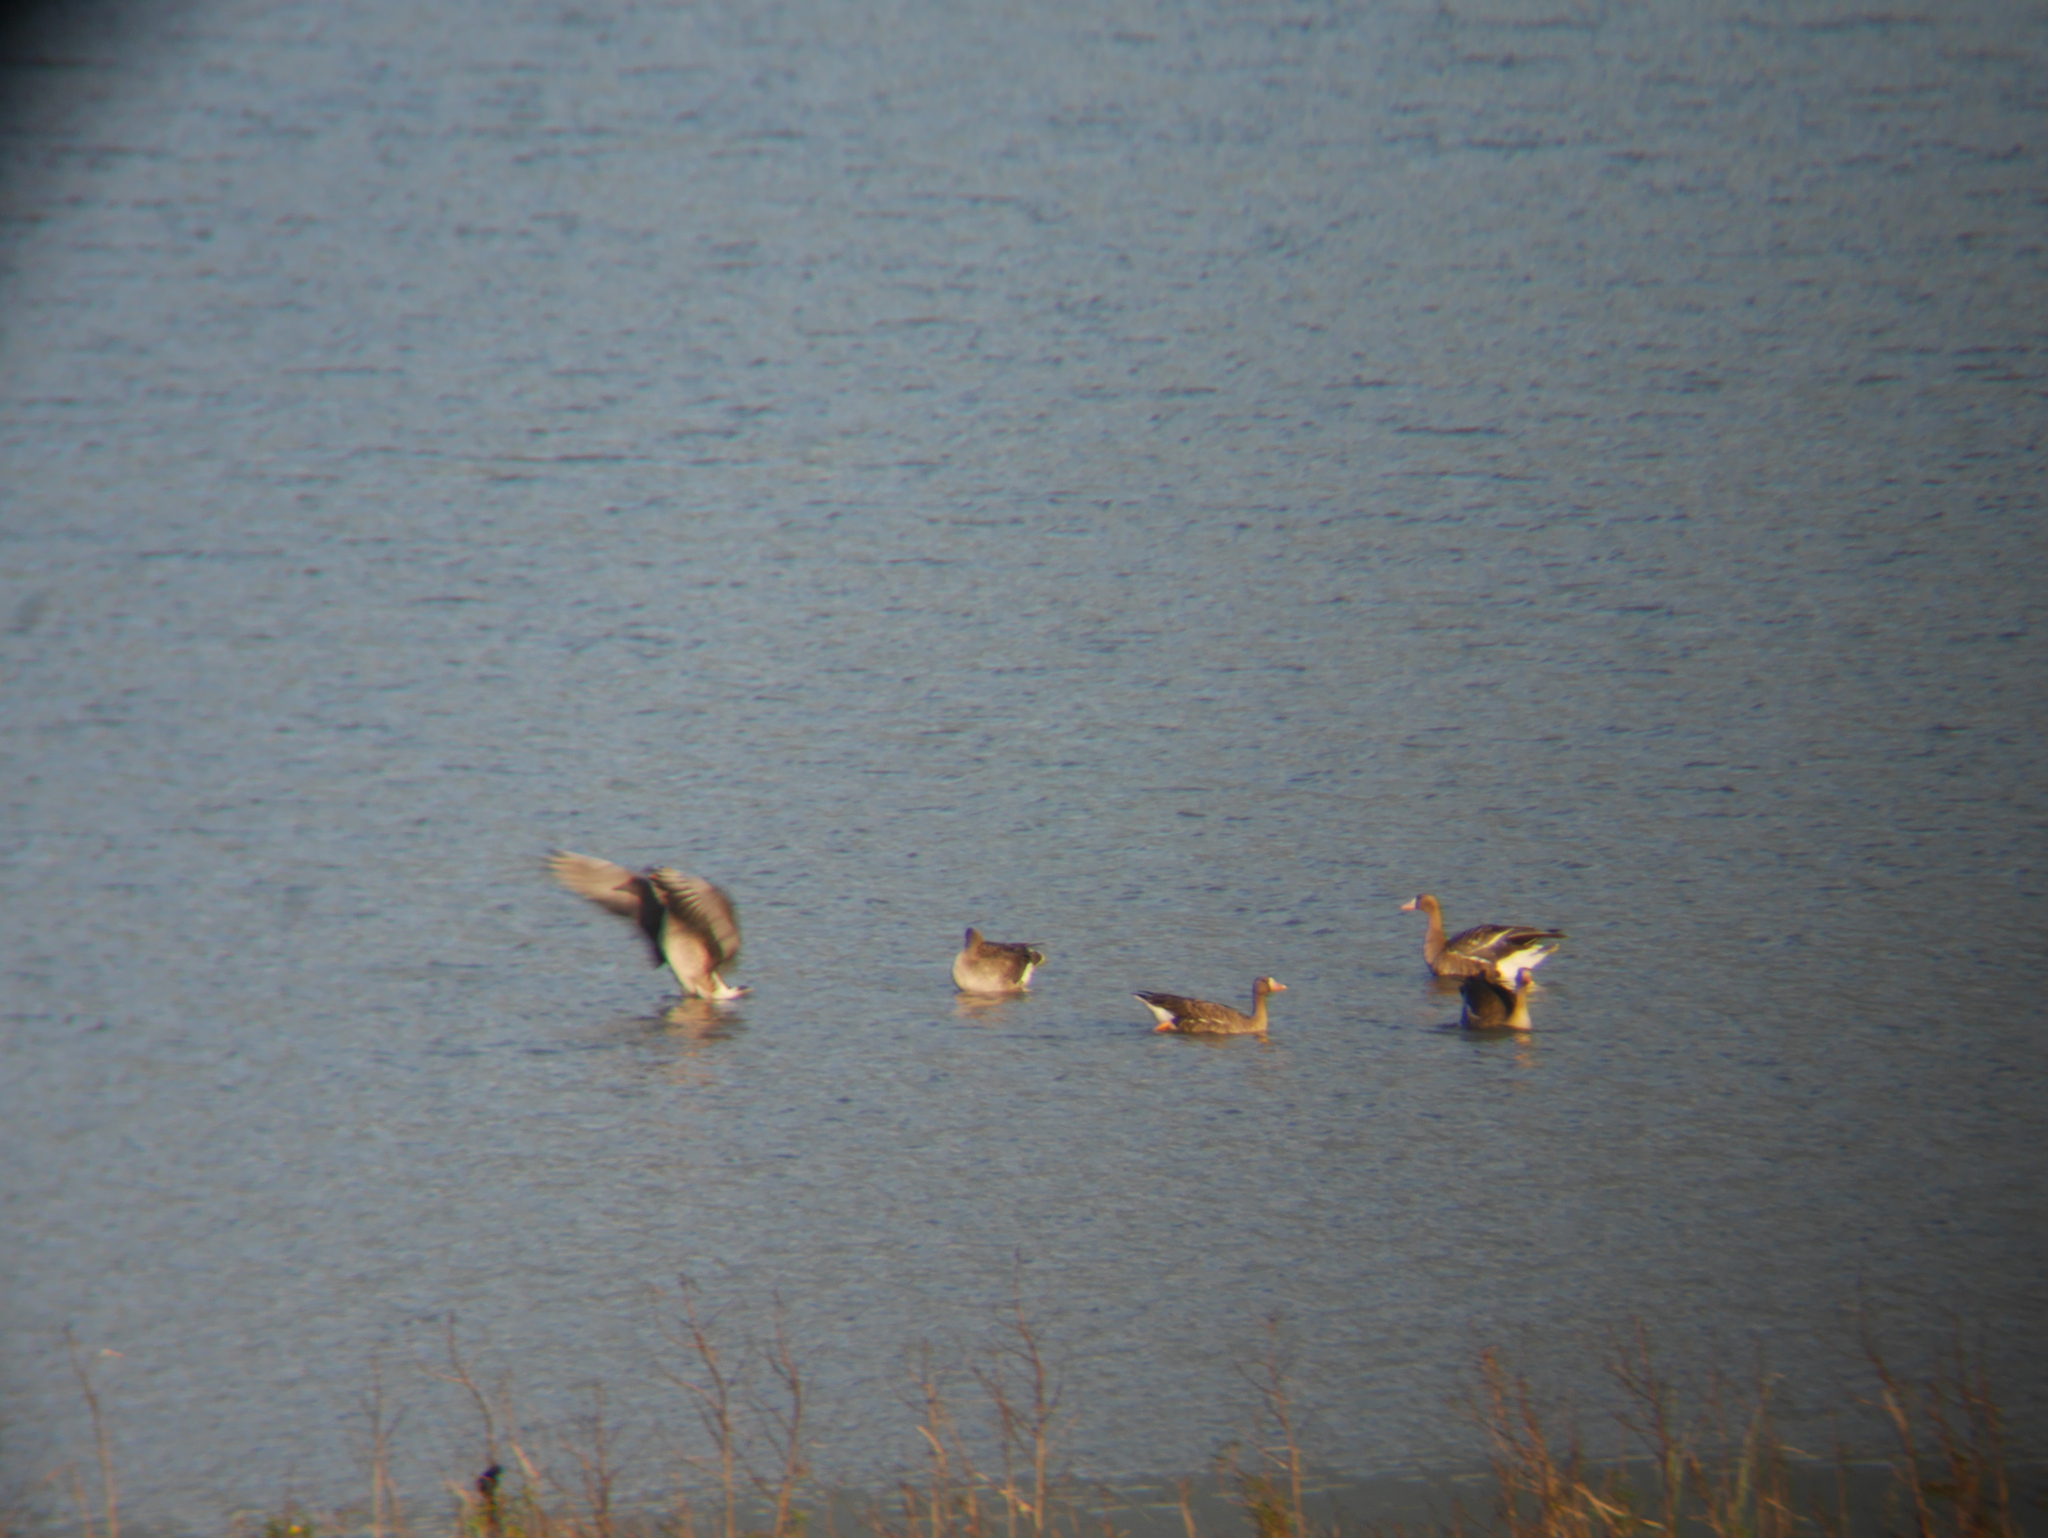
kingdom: Animalia
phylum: Chordata
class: Aves
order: Anseriformes
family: Anatidae
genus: Anser
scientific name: Anser albifrons
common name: Greater white-fronted goose
